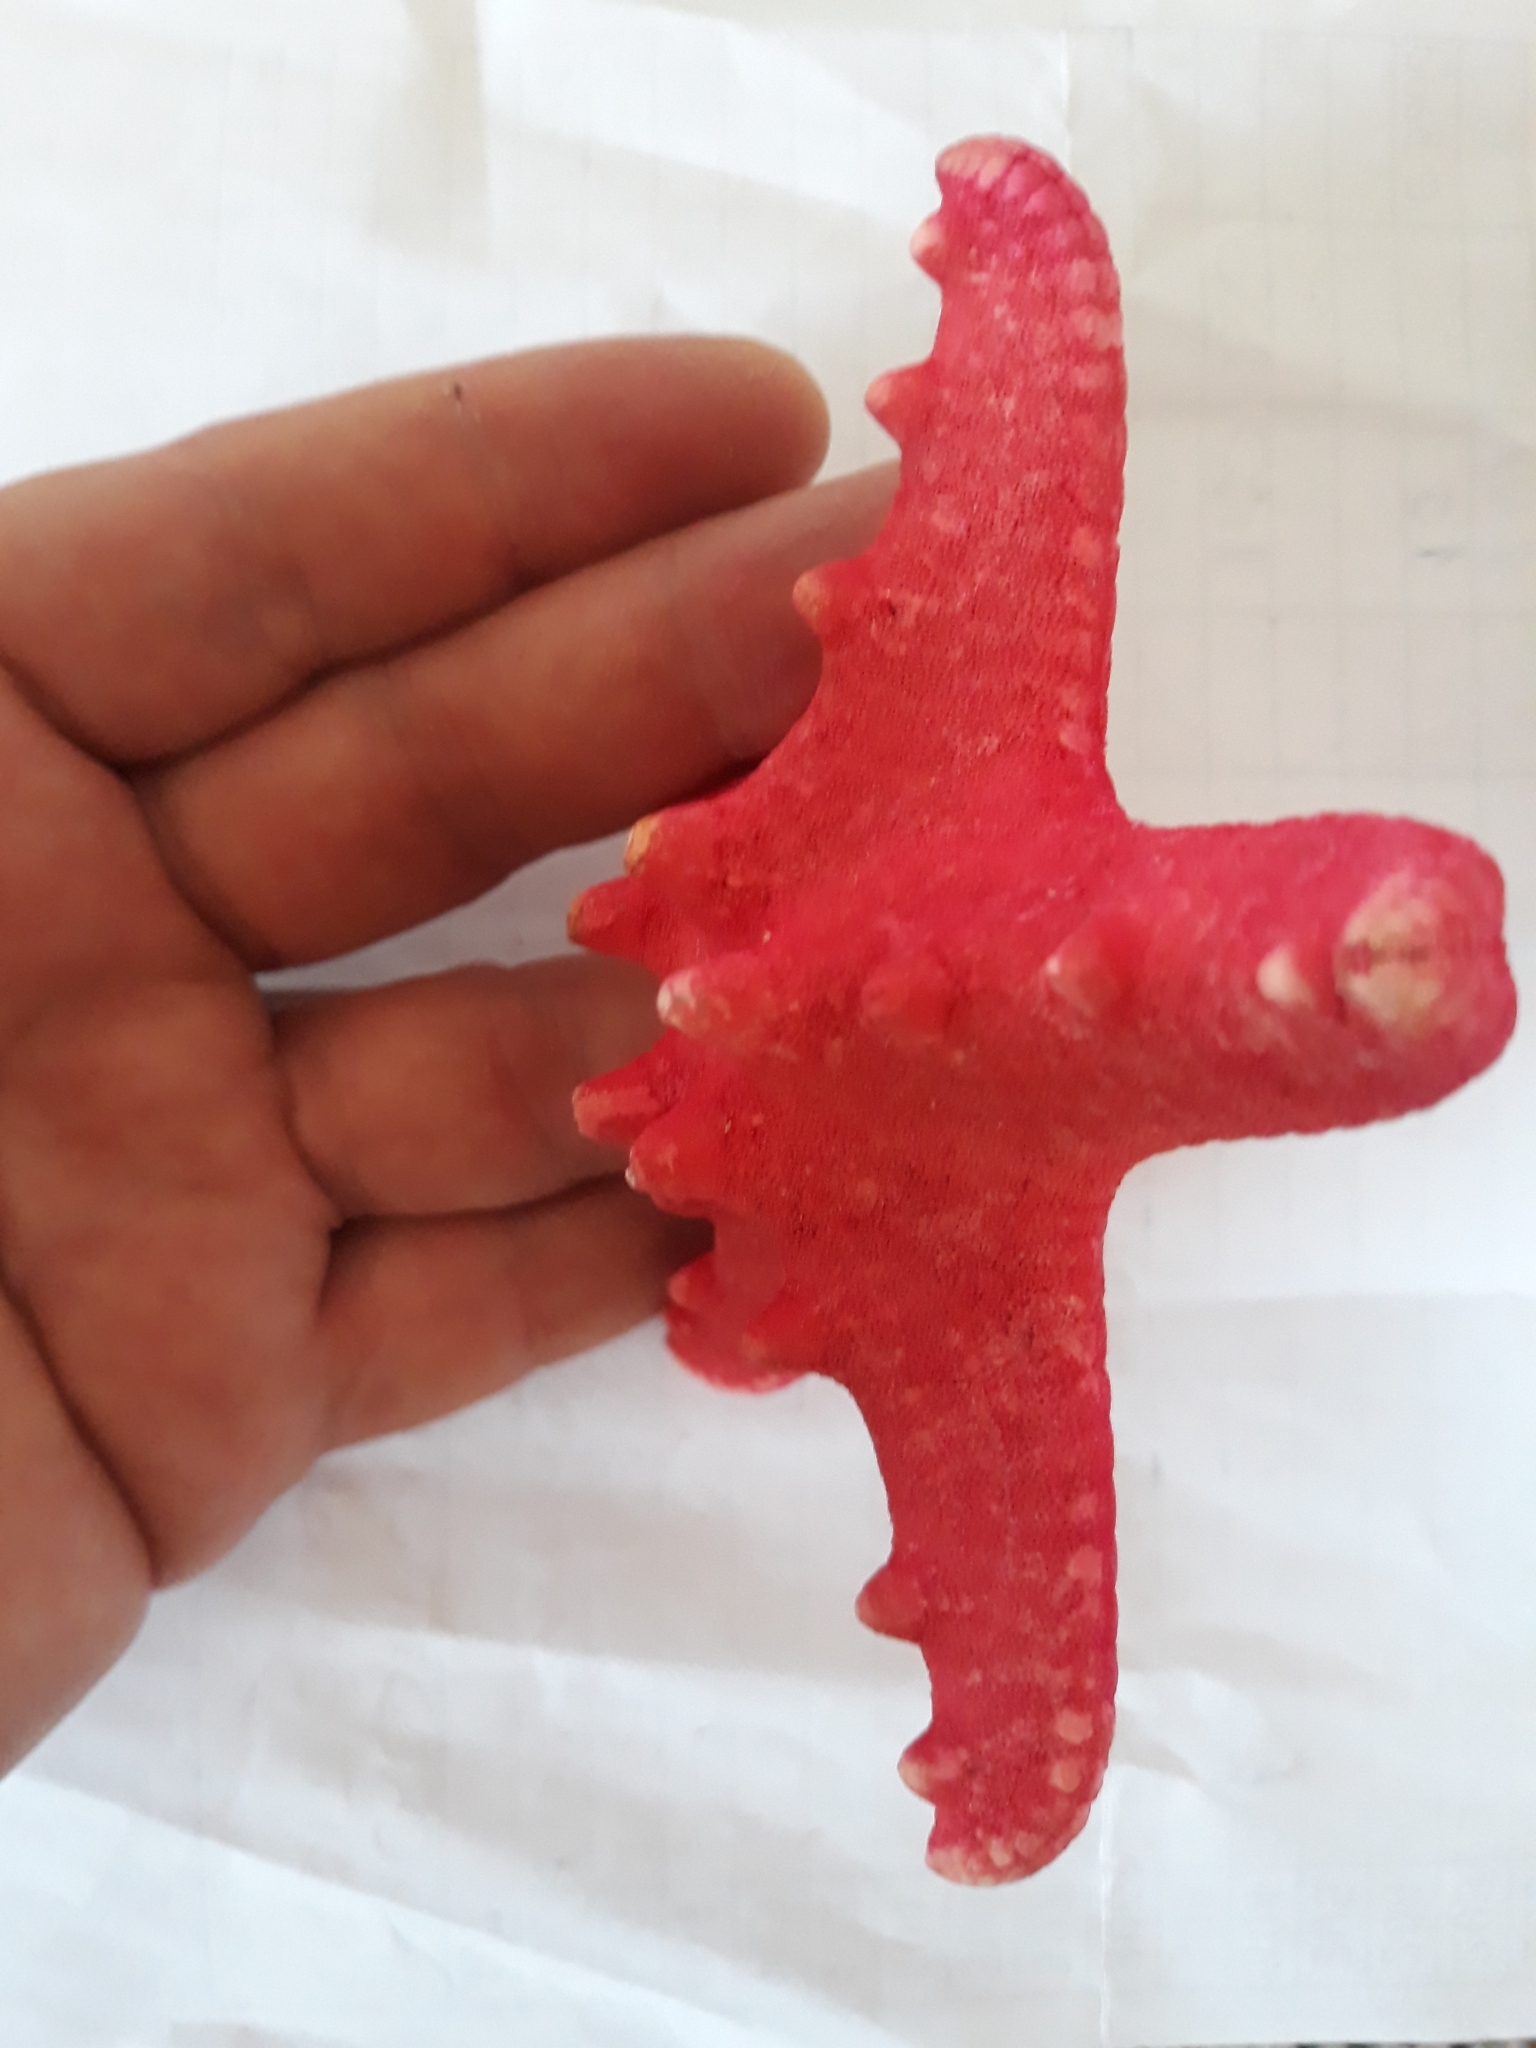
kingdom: Animalia
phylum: Echinodermata
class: Asteroidea
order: Valvatida
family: Oreasteridae
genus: Protoreaster
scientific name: Protoreaster nodosus
